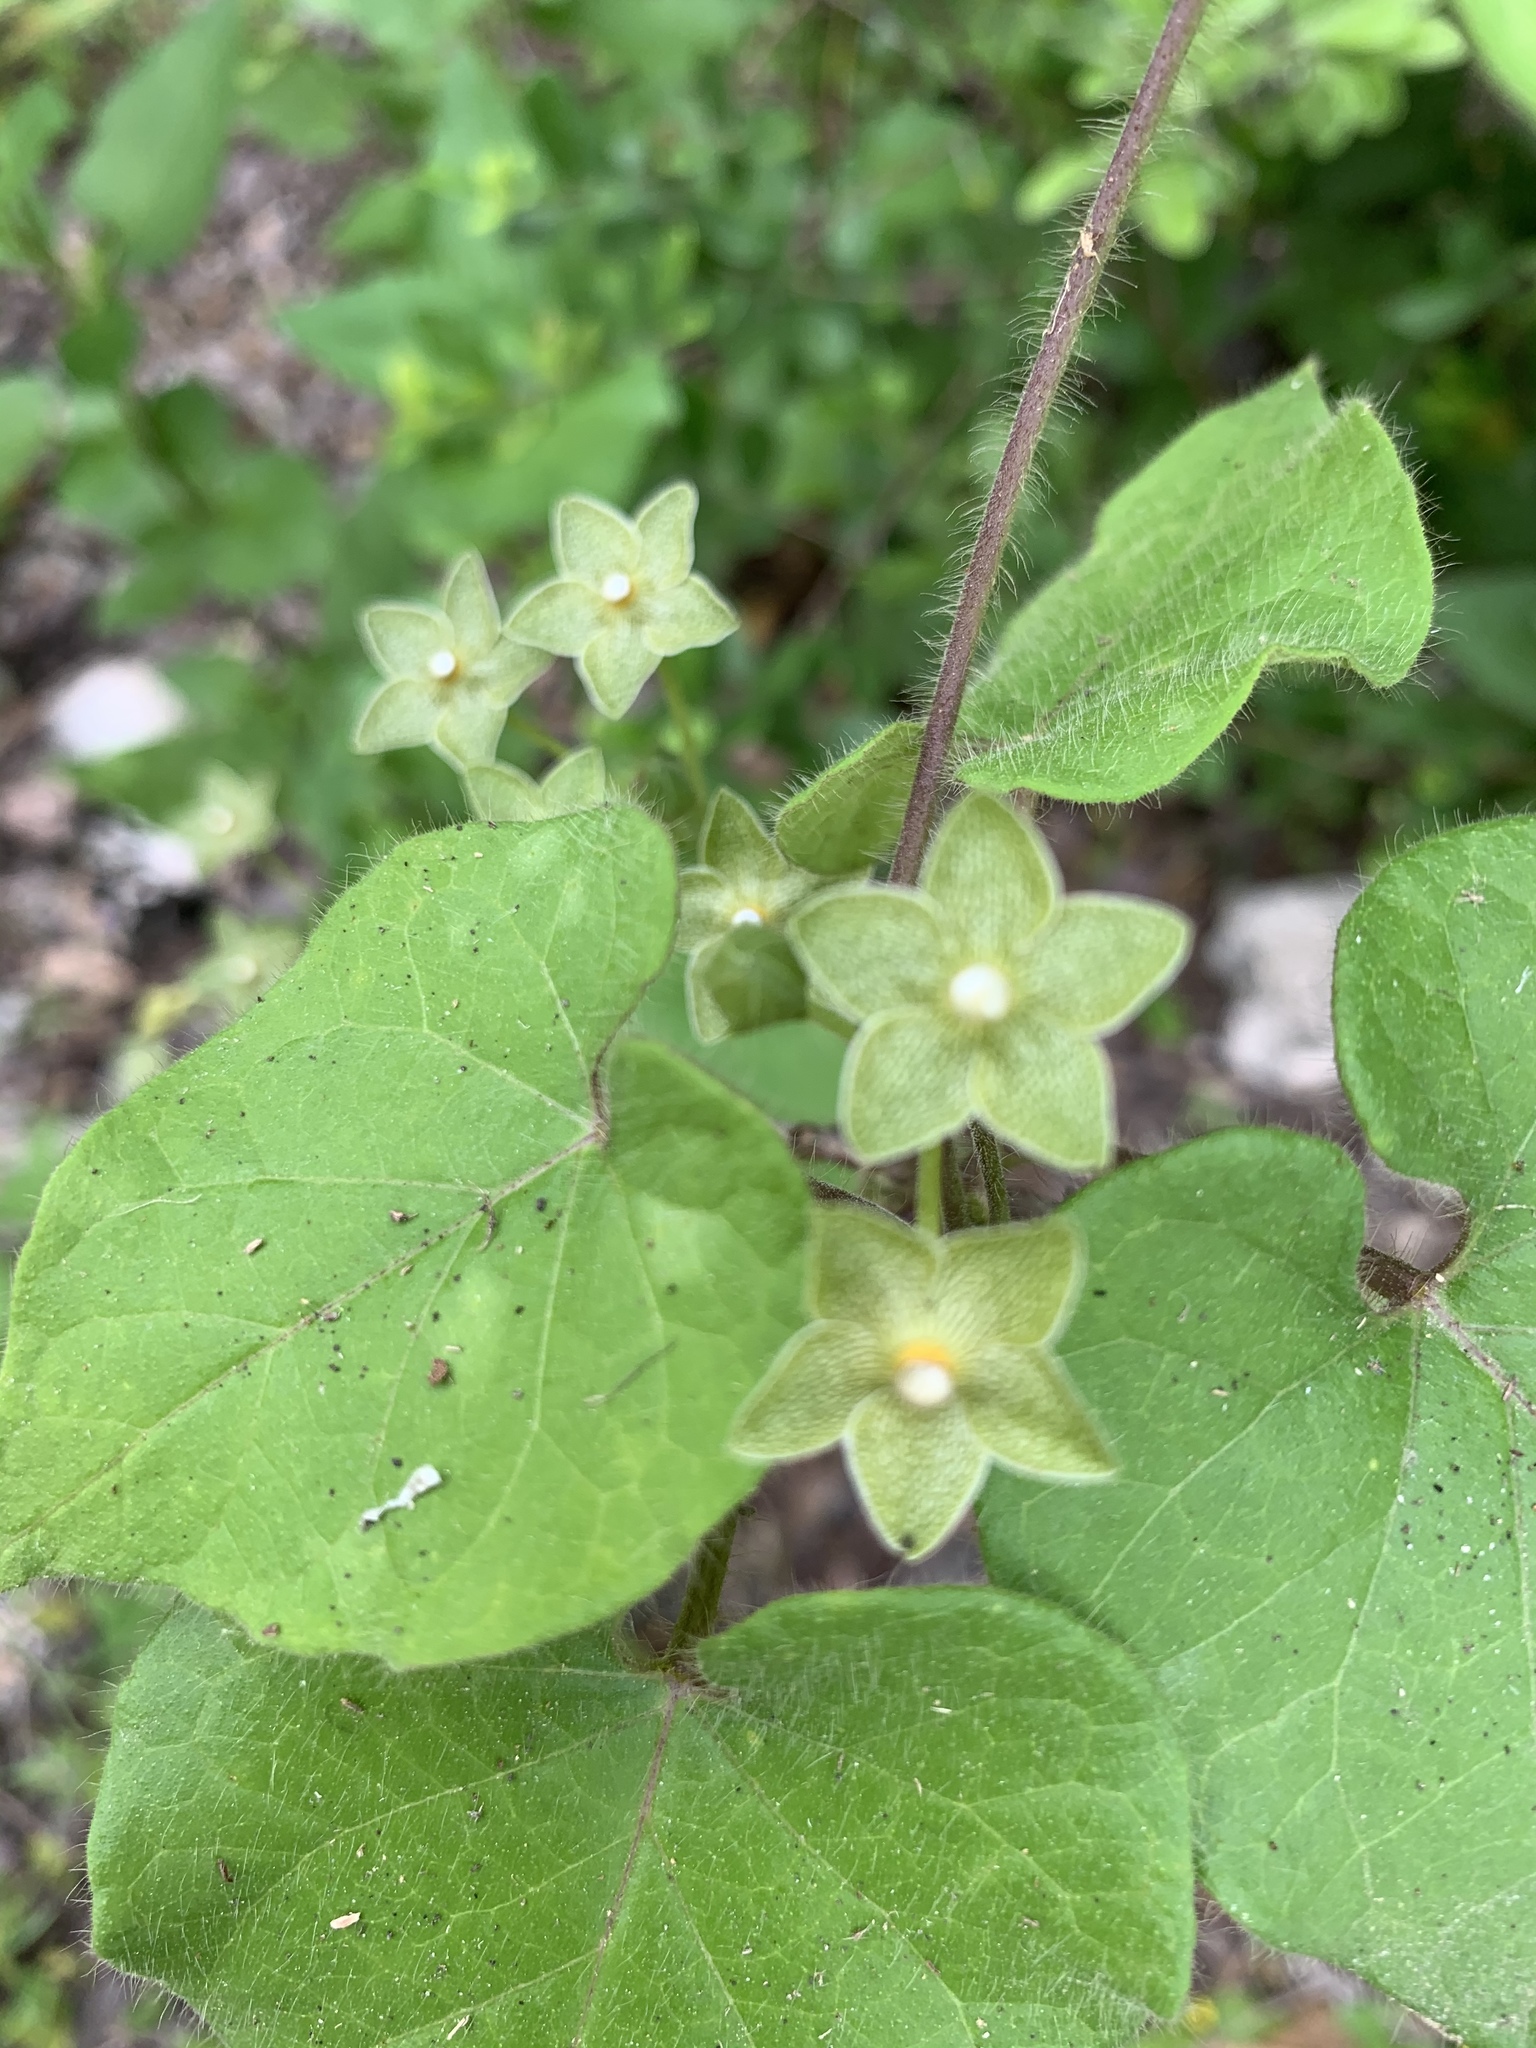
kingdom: Plantae
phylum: Tracheophyta
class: Magnoliopsida
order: Gentianales
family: Apocynaceae
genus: Dictyanthus
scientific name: Dictyanthus reticulatus
